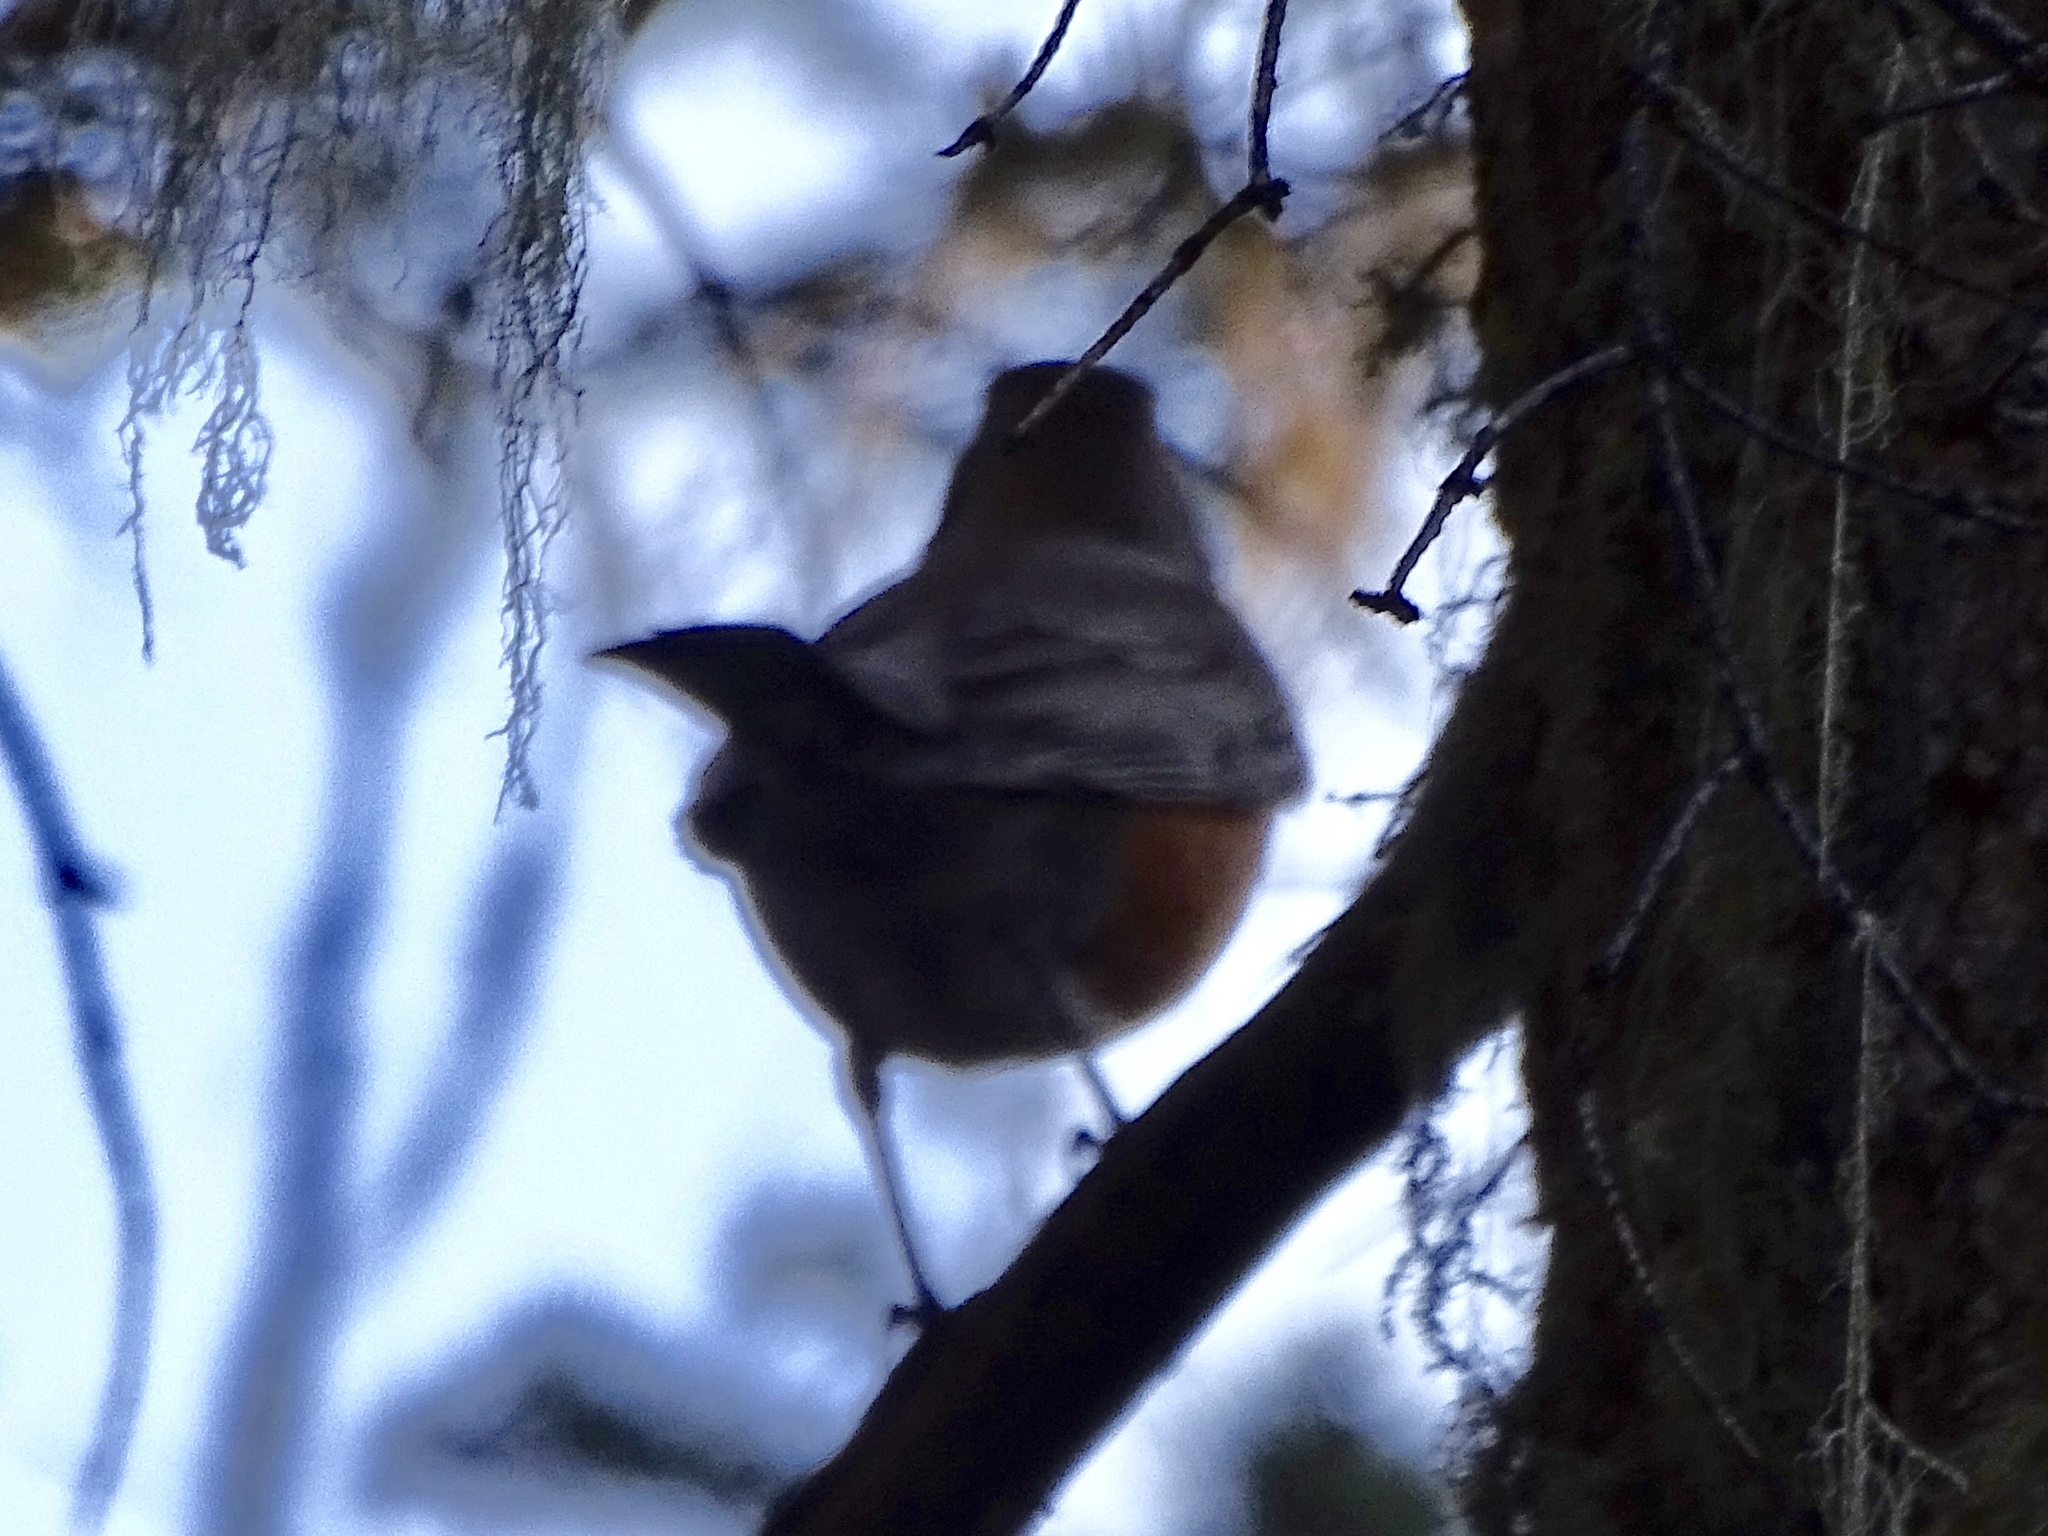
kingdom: Animalia
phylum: Chordata
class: Aves
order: Passeriformes
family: Turdidae
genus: Turdus
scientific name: Turdus migratorius
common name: American robin
